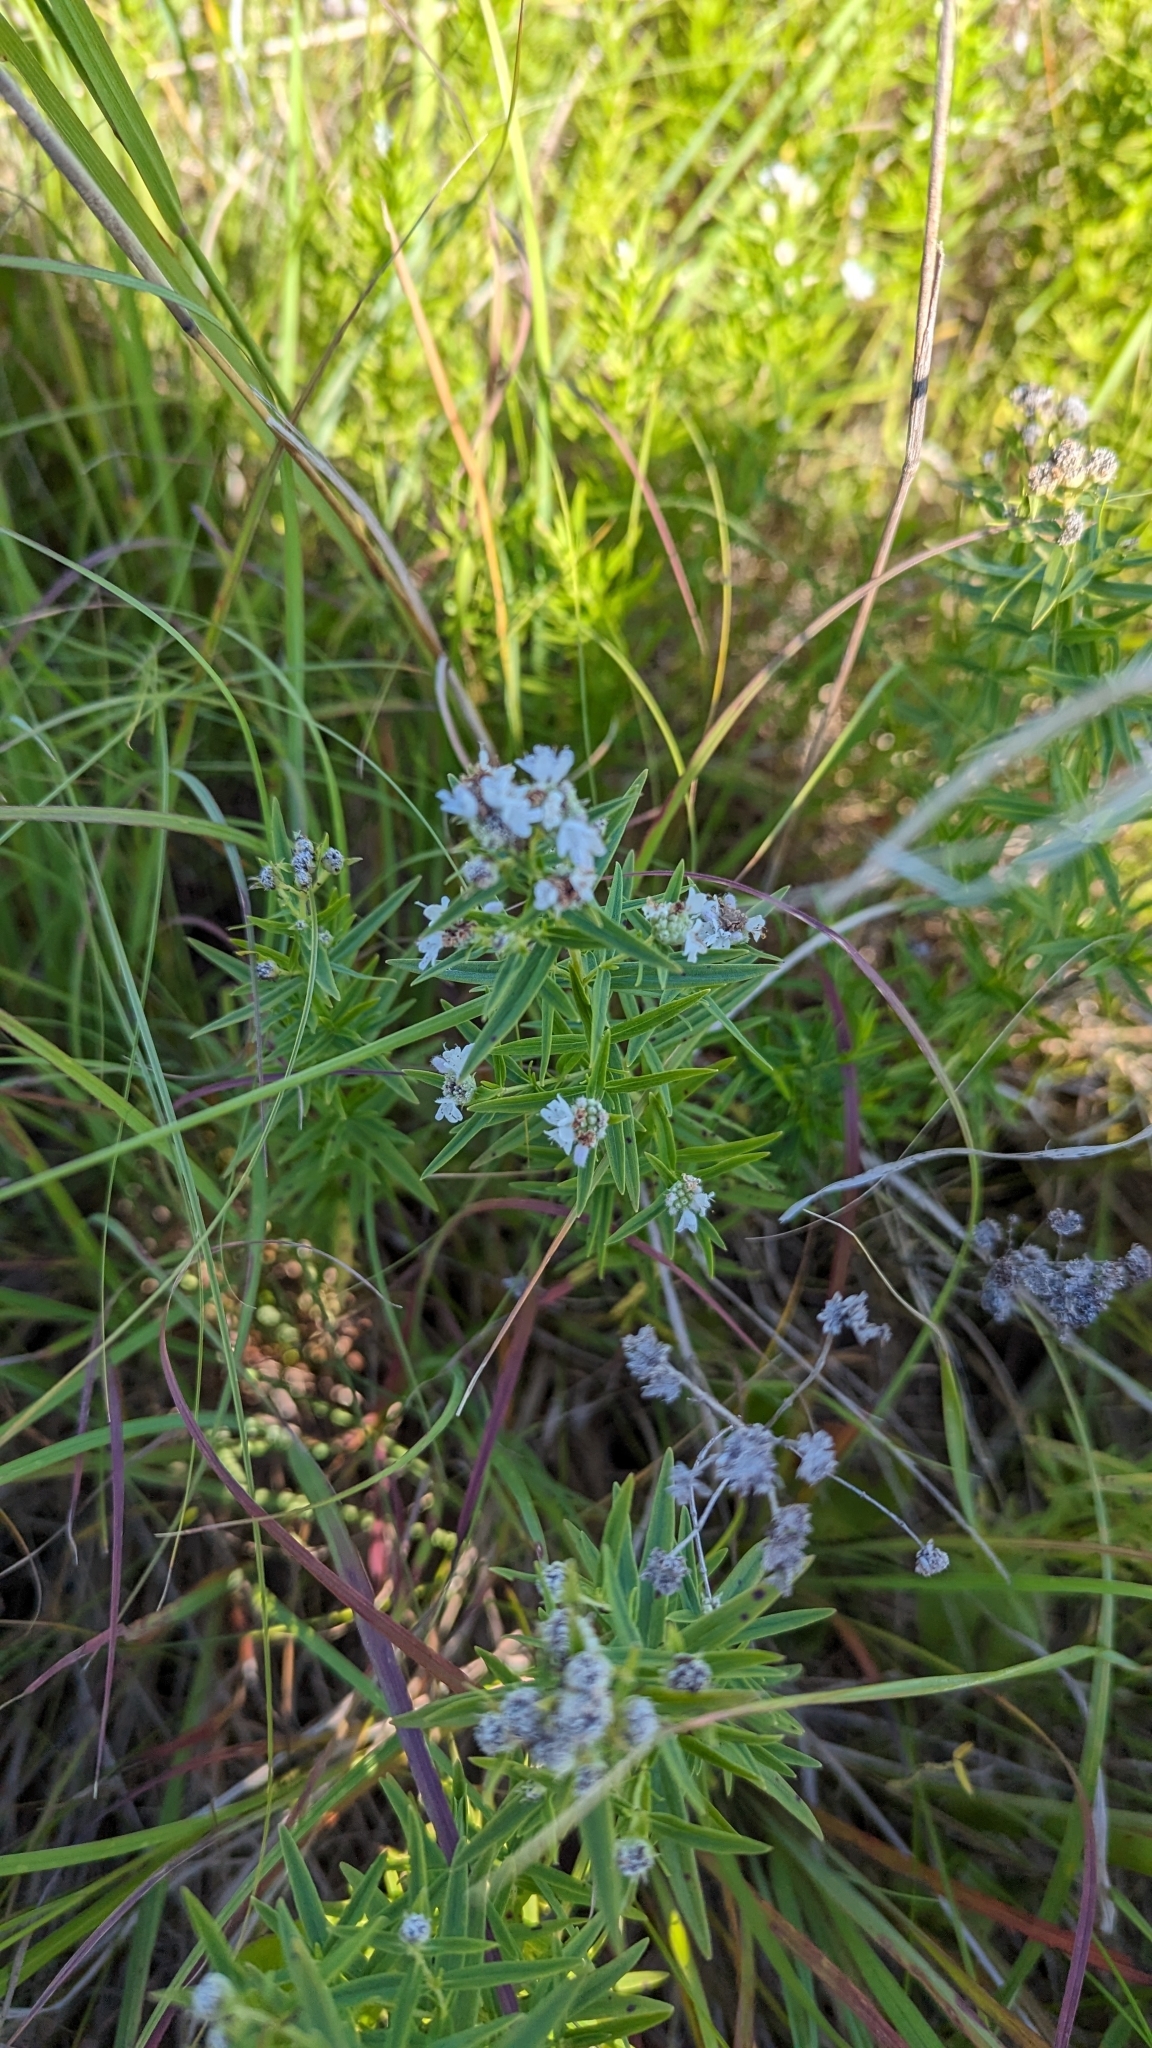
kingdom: Plantae
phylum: Tracheophyta
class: Magnoliopsida
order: Lamiales
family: Lamiaceae
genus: Pycnanthemum
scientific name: Pycnanthemum virginianum
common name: Virginia mountain-mint
